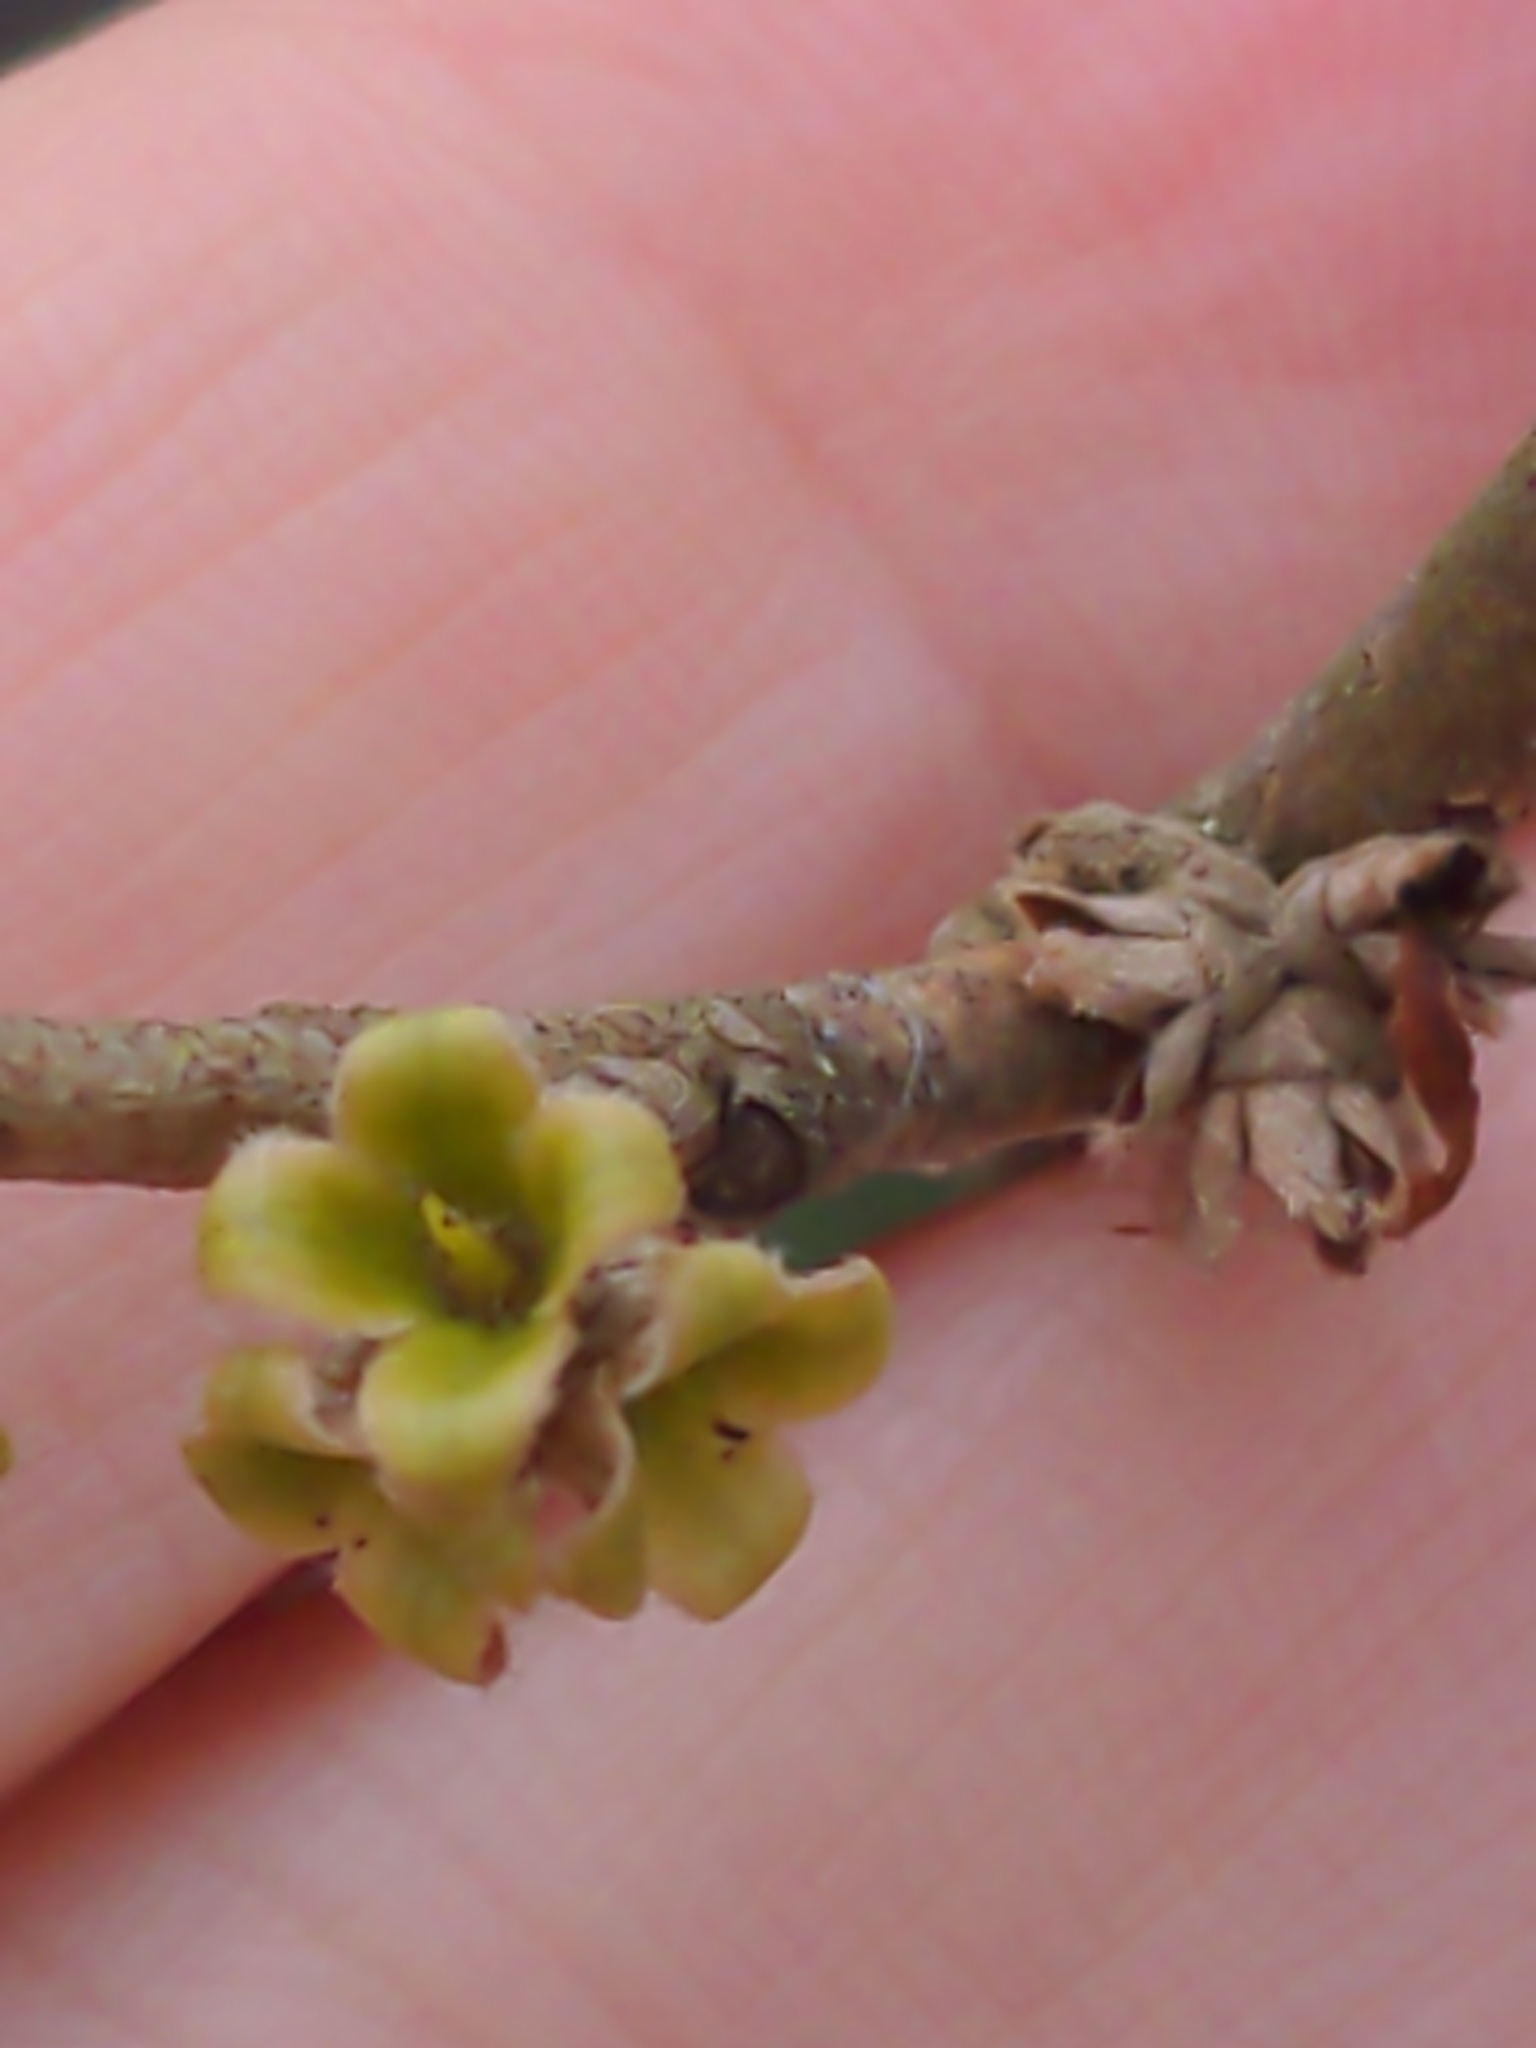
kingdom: Plantae
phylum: Tracheophyta
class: Magnoliopsida
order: Saxifragales
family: Hamamelidaceae
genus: Hamamelis
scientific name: Hamamelis virginiana
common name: Witch-hazel
